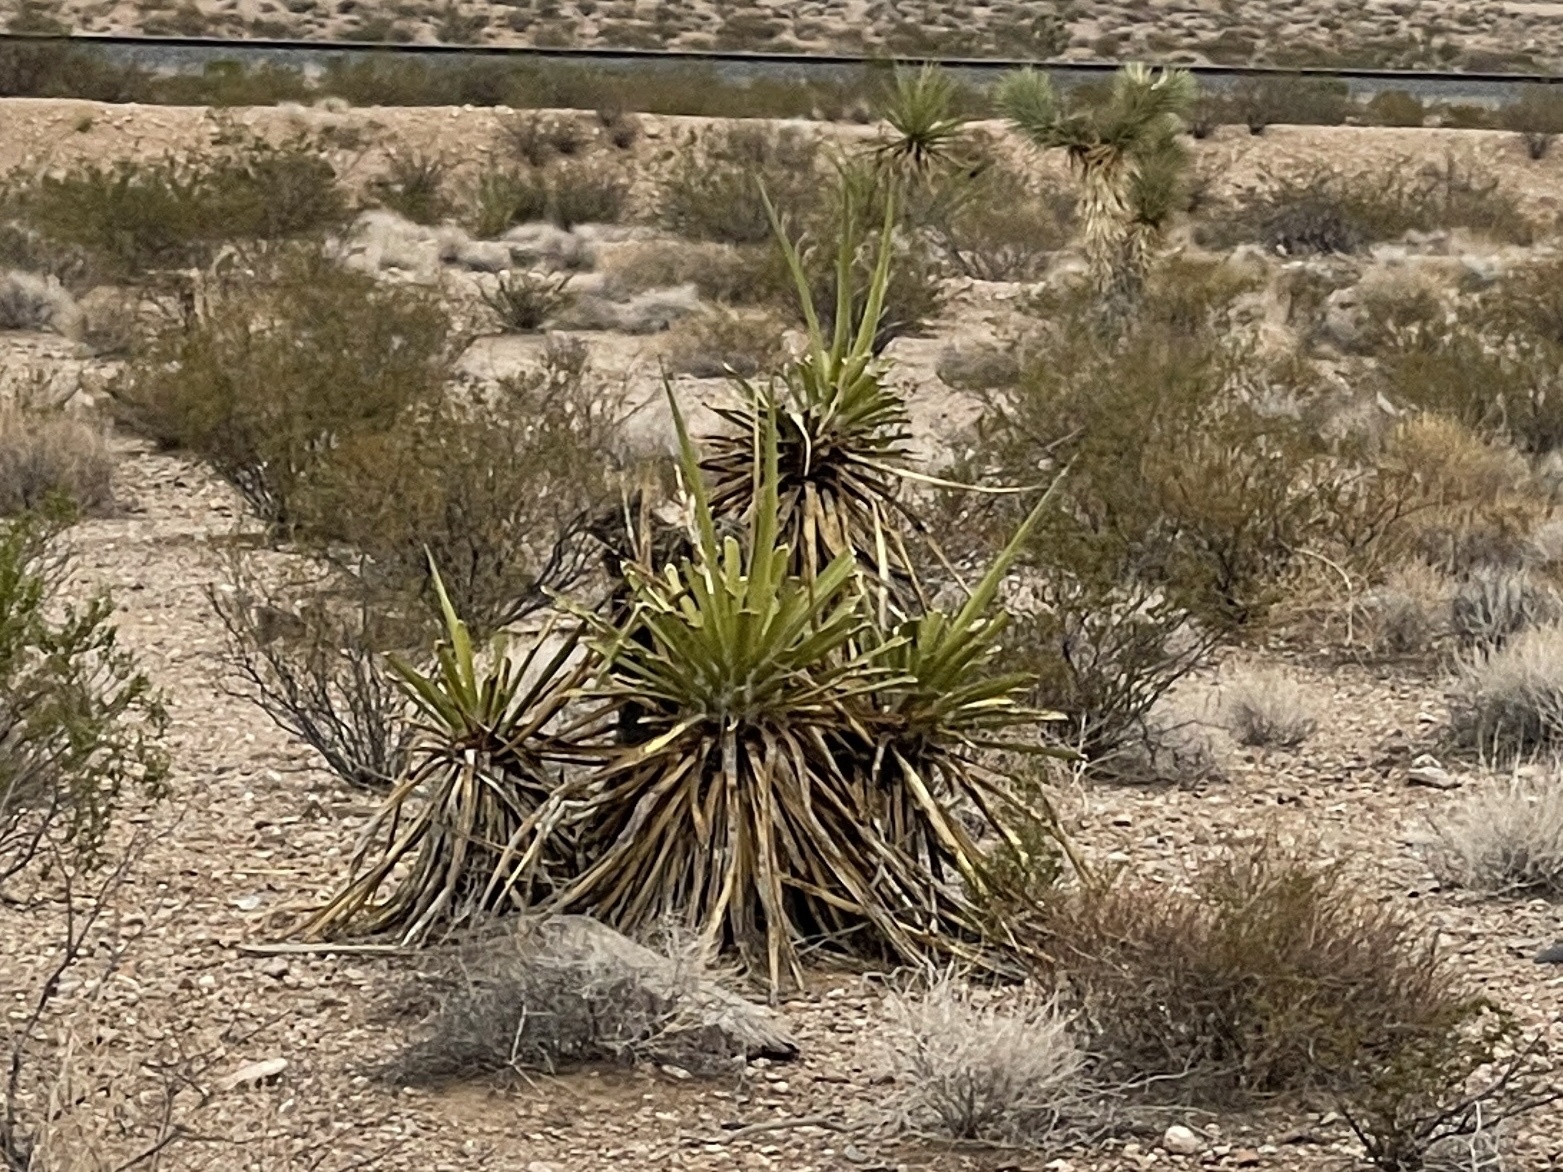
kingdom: Plantae
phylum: Tracheophyta
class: Liliopsida
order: Asparagales
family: Asparagaceae
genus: Yucca
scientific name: Yucca schidigera
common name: Mojave yucca
